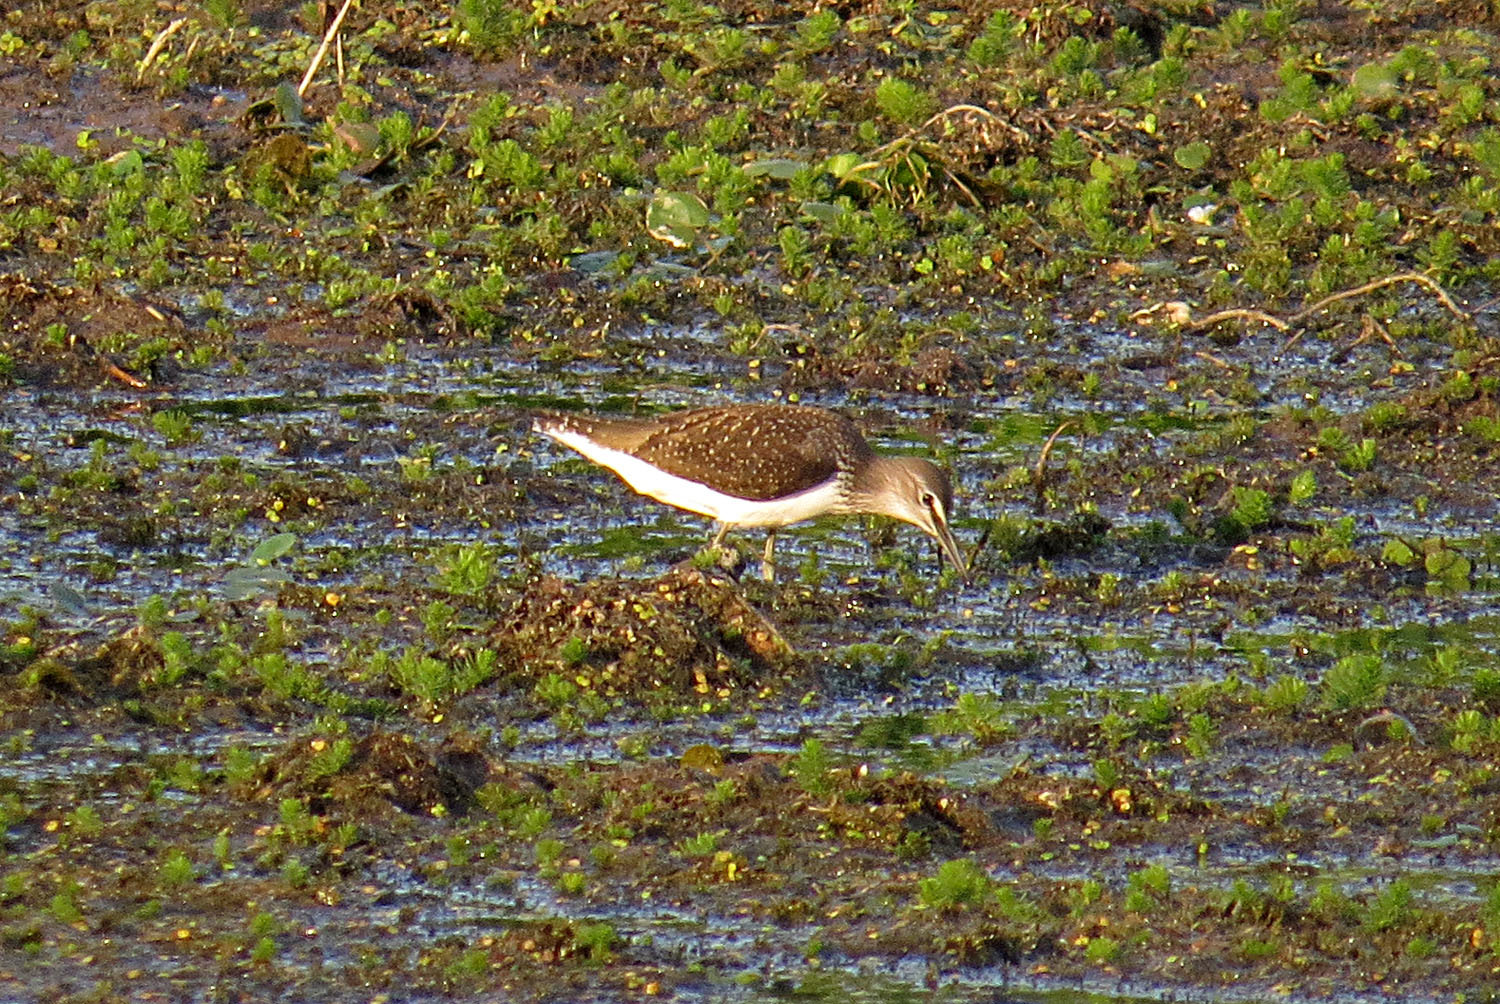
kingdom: Animalia
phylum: Chordata
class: Aves
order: Charadriiformes
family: Scolopacidae
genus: Tringa
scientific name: Tringa ochropus
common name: Green sandpiper
